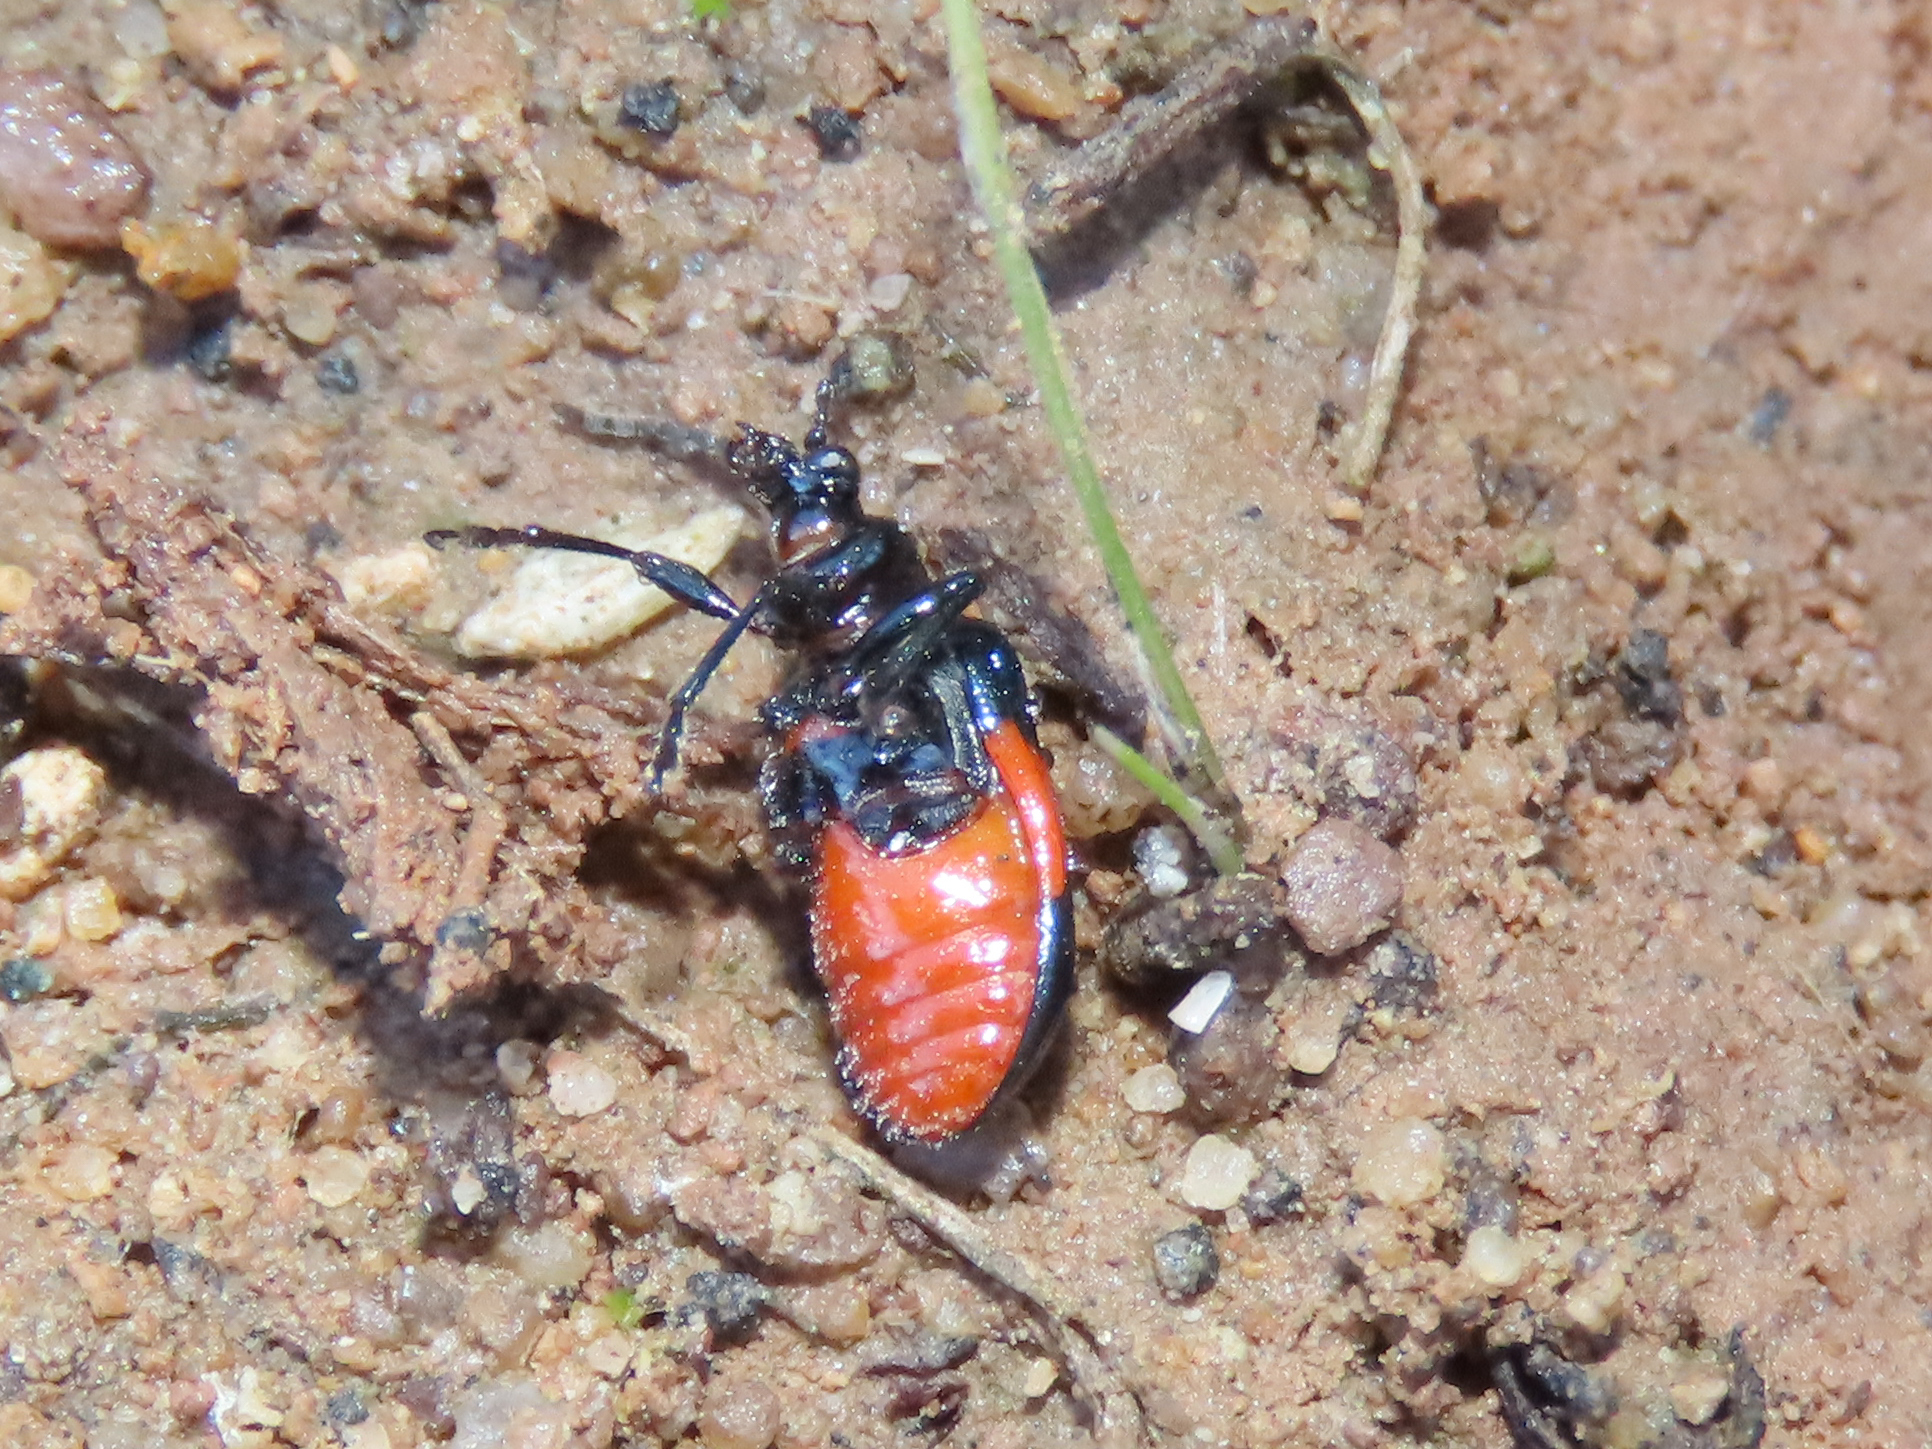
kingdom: Animalia
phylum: Arthropoda
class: Insecta
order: Coleoptera
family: Chrysomelidae
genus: Lema
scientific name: Lema balteata
